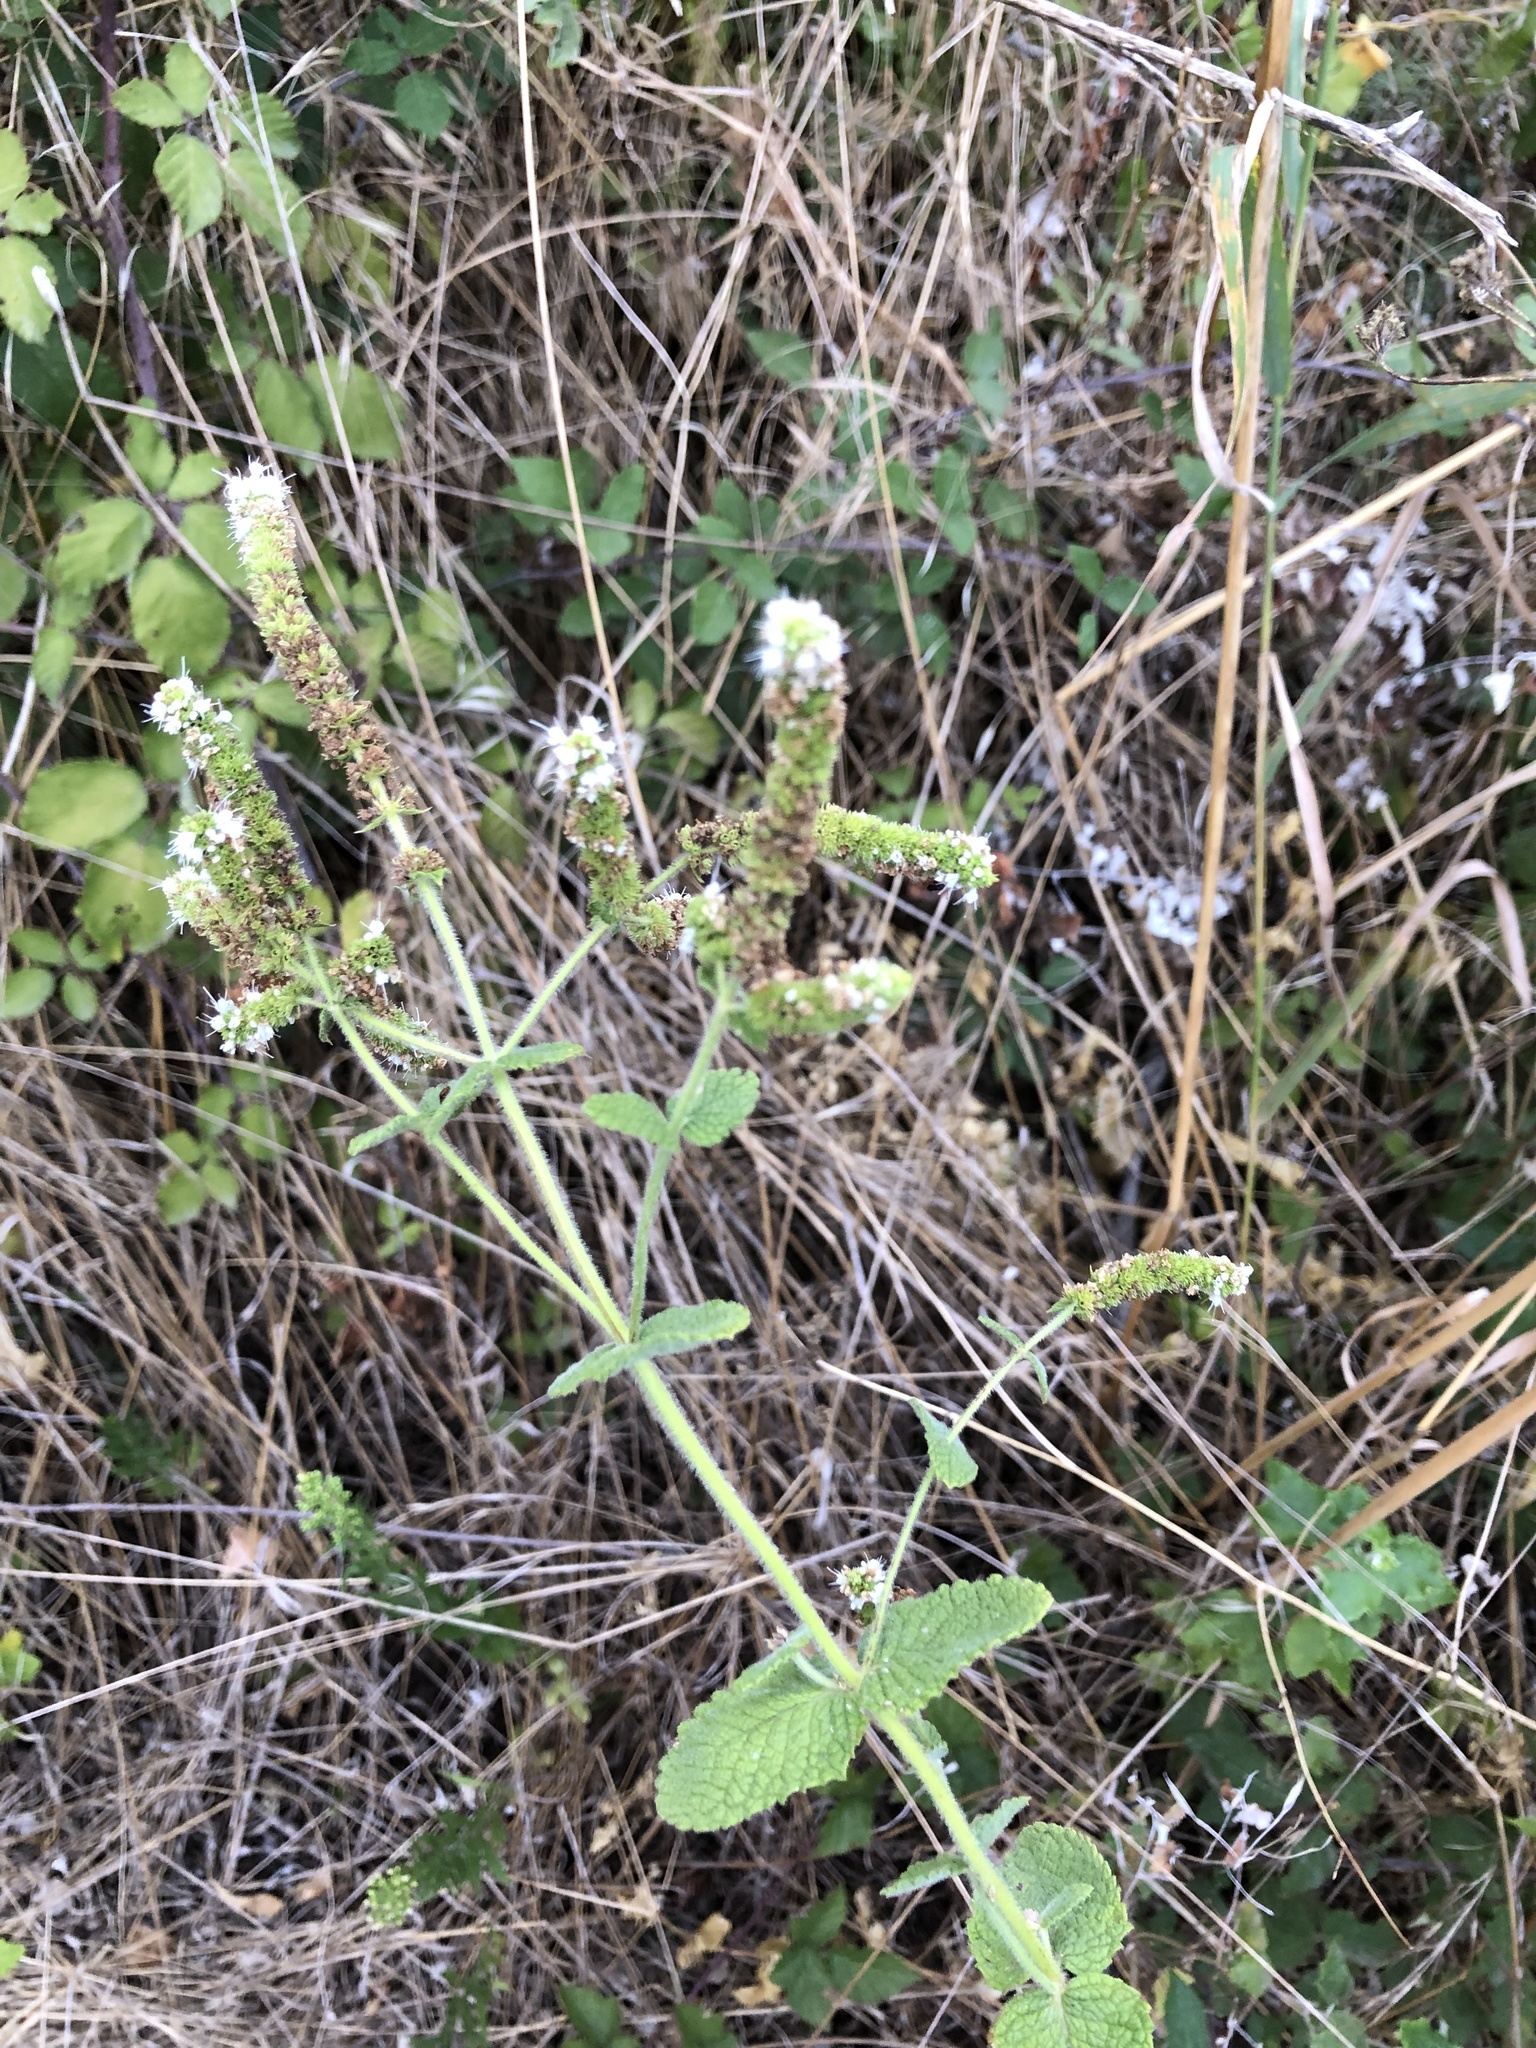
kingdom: Plantae
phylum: Tracheophyta
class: Magnoliopsida
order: Lamiales
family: Lamiaceae
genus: Mentha
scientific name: Mentha suaveolens
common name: Apple mint
